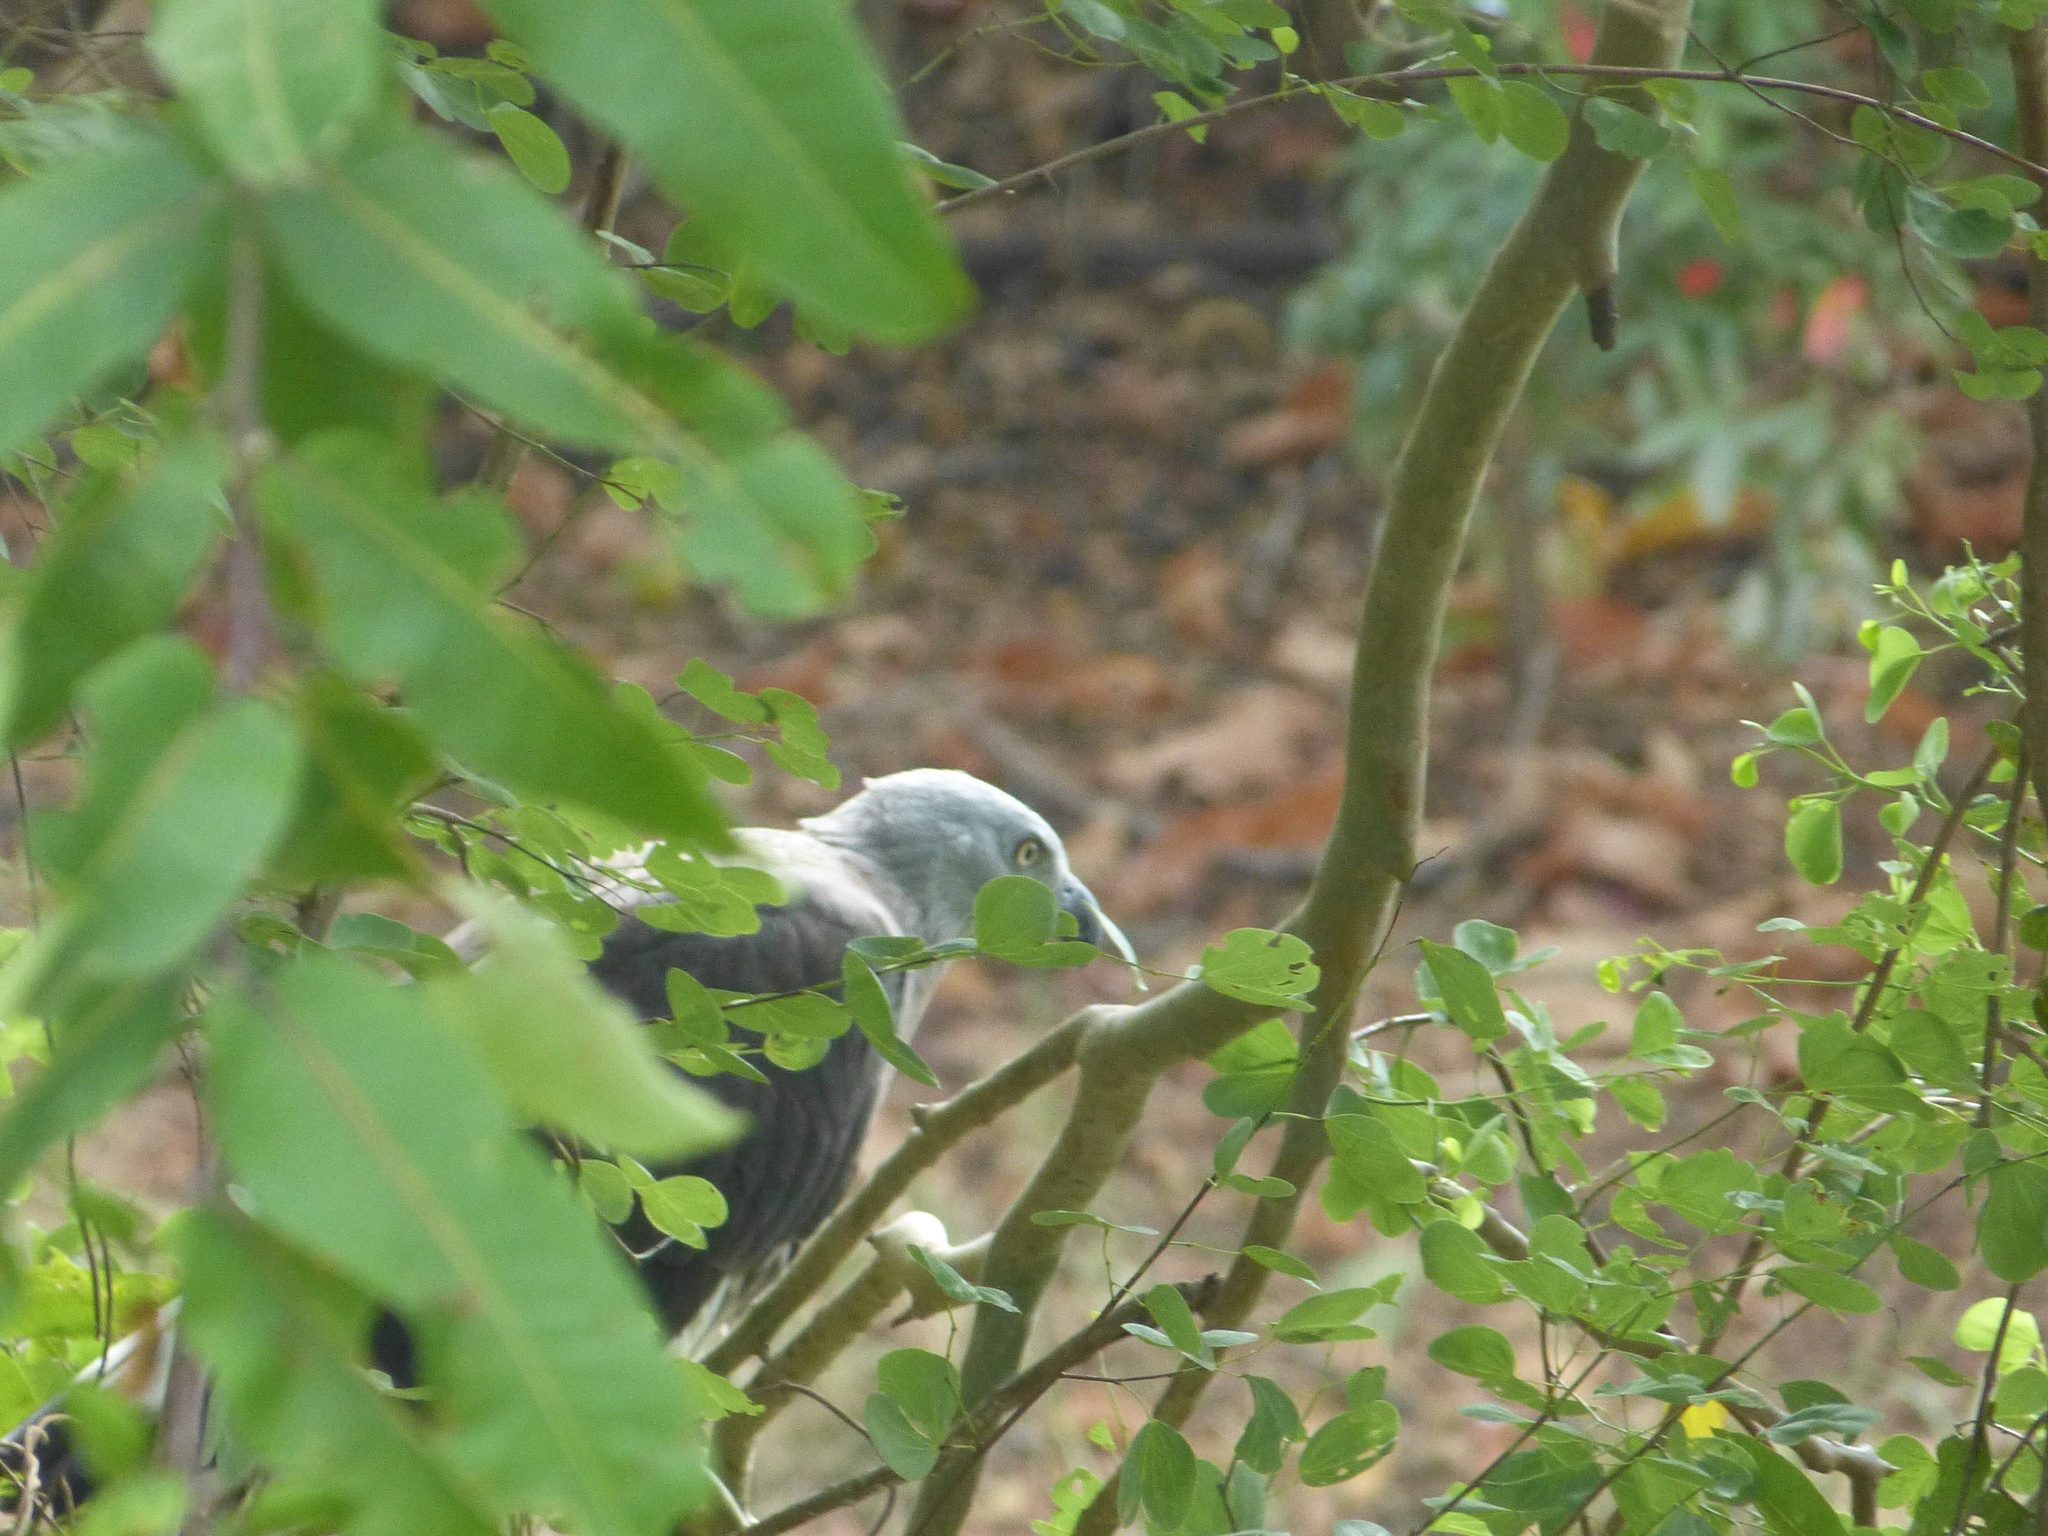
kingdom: Animalia
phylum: Chordata
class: Aves
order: Accipitriformes
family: Accipitridae
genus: Icthyophaga
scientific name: Icthyophaga ichthyaetus
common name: Grey-headed fish eagle
